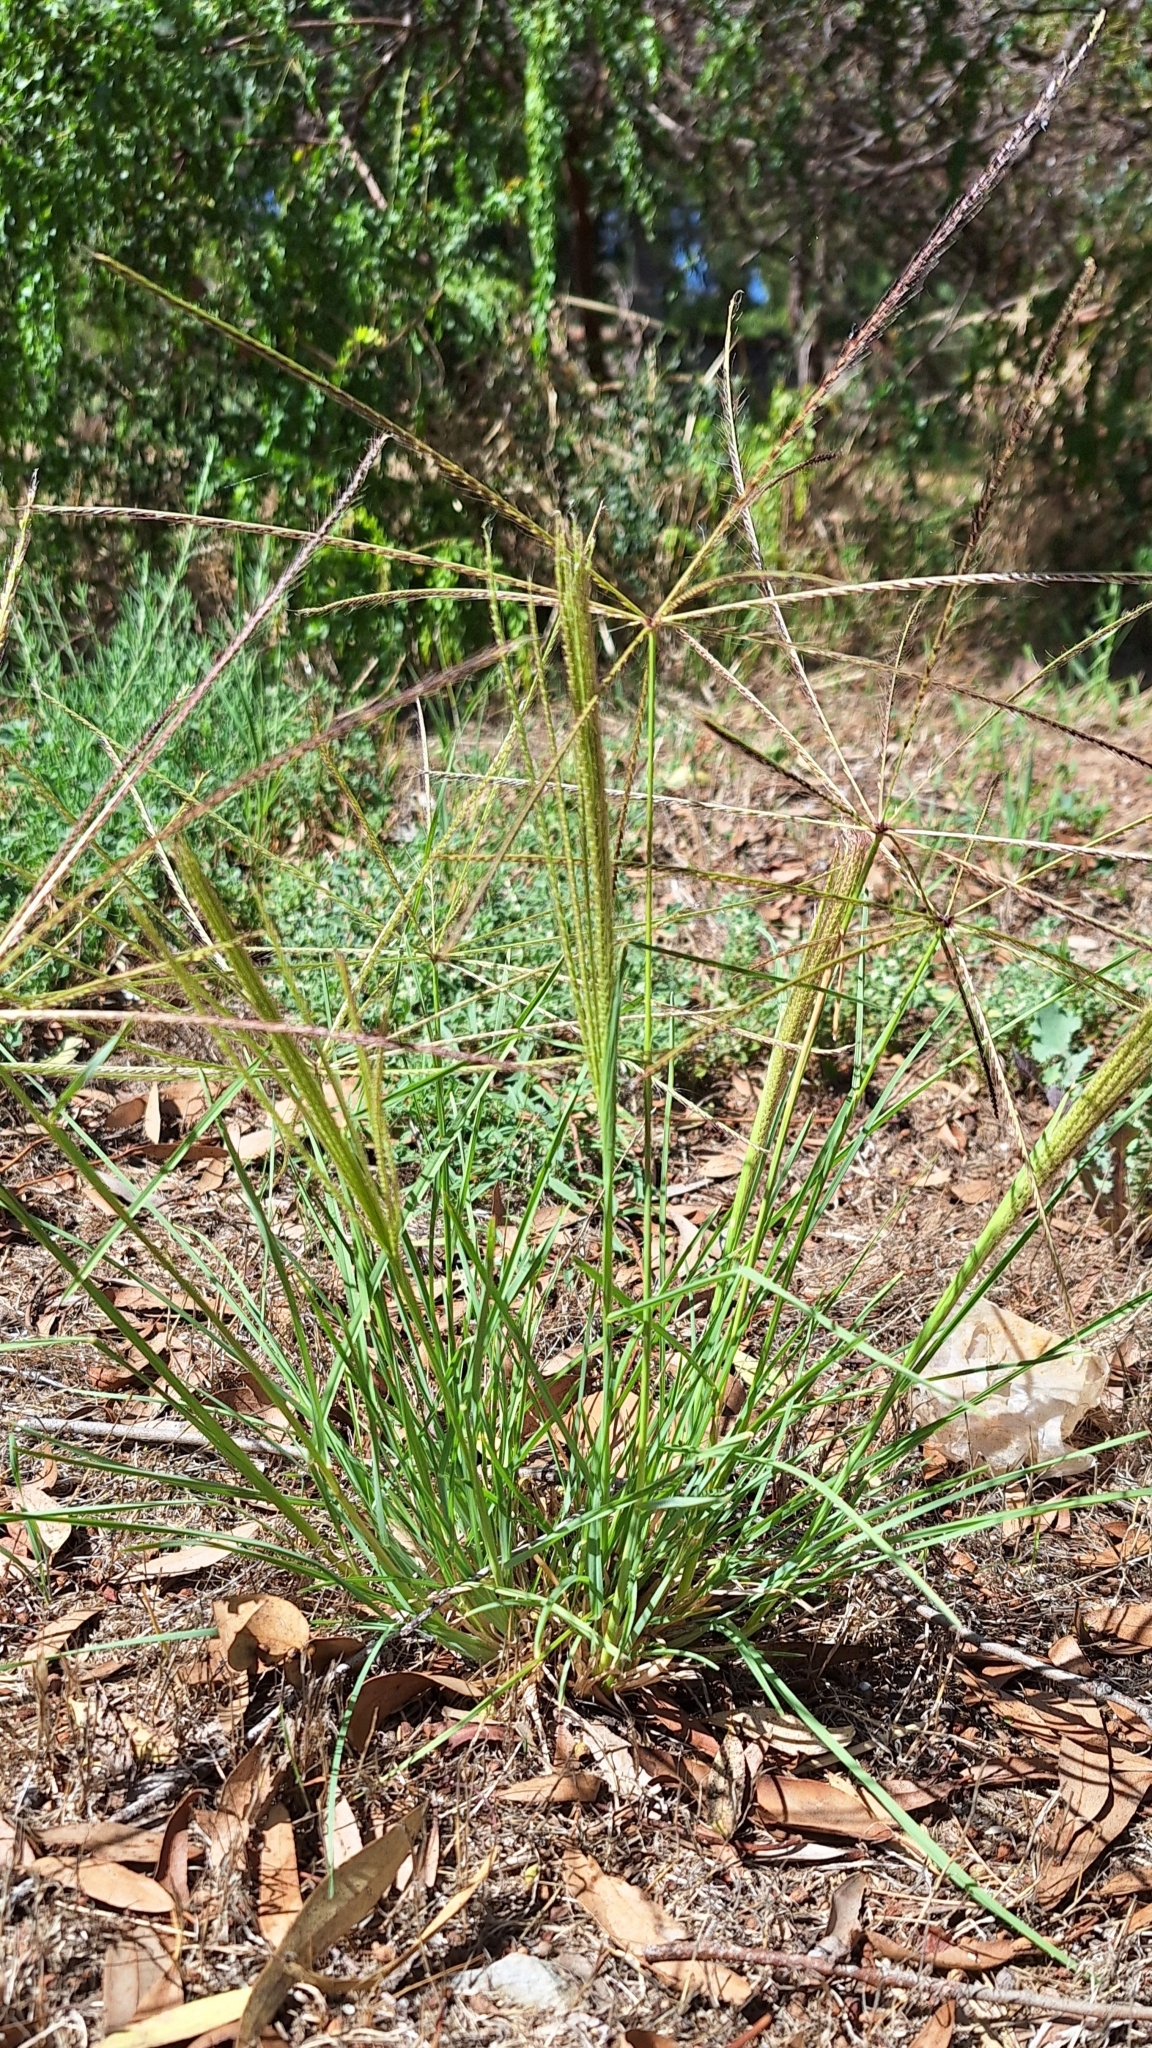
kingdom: Plantae
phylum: Tracheophyta
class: Liliopsida
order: Poales
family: Poaceae
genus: Chloris
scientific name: Chloris truncata
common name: Windmill-grass
